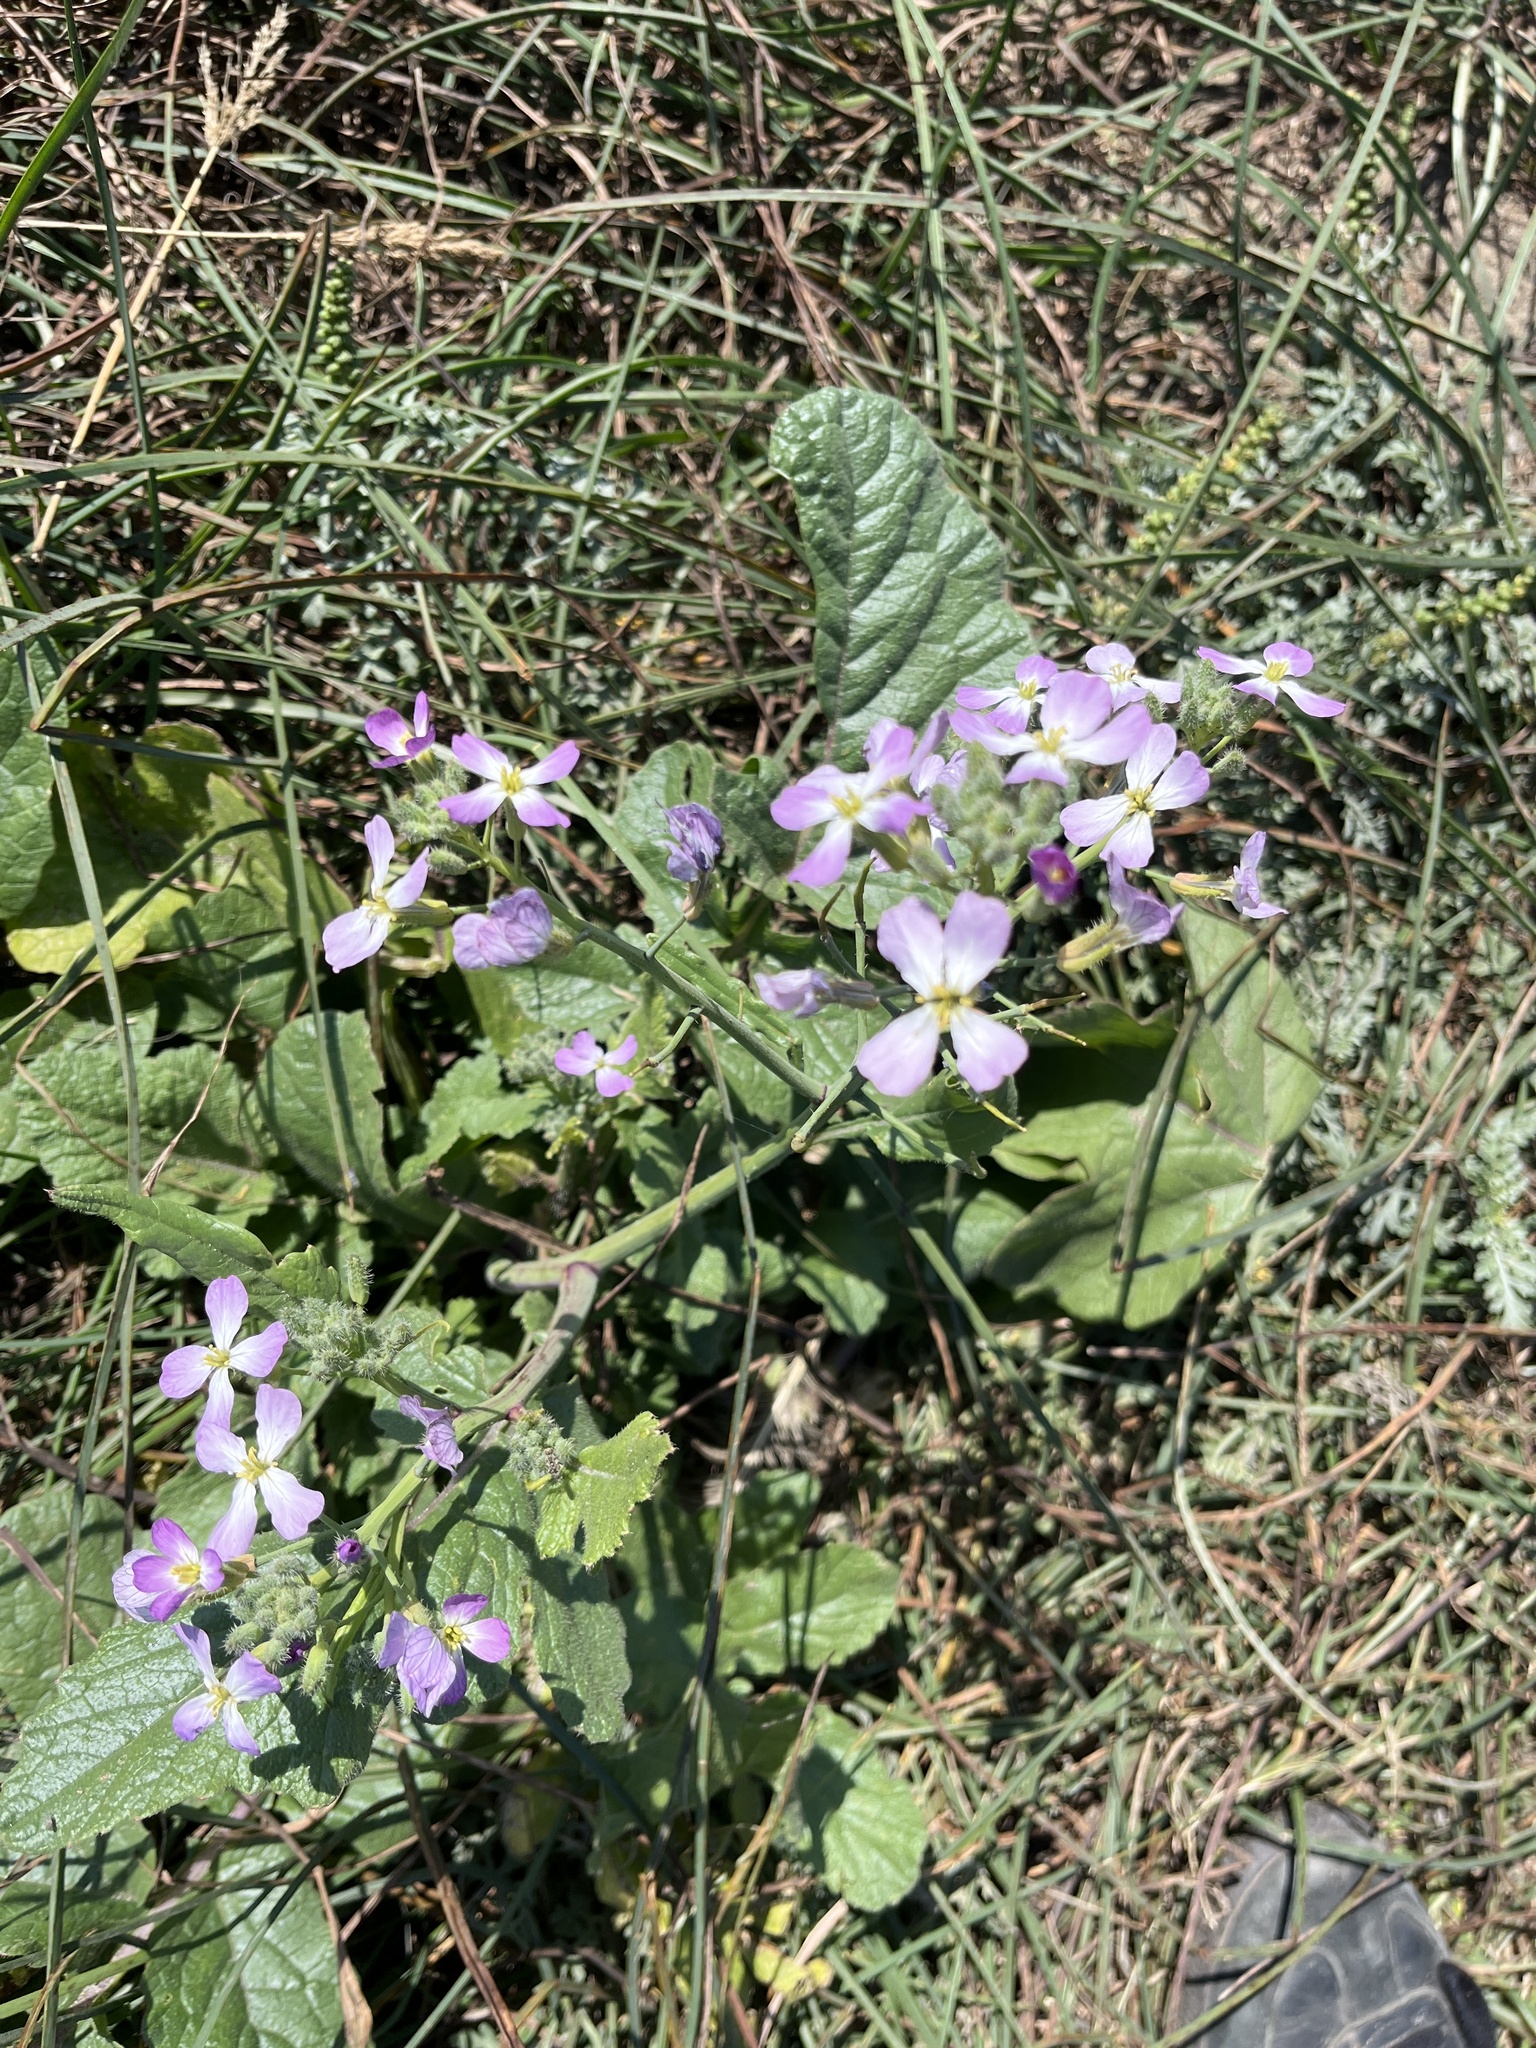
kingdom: Plantae
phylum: Tracheophyta
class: Magnoliopsida
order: Brassicales
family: Brassicaceae
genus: Raphanus
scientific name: Raphanus sativus
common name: Cultivated radish
